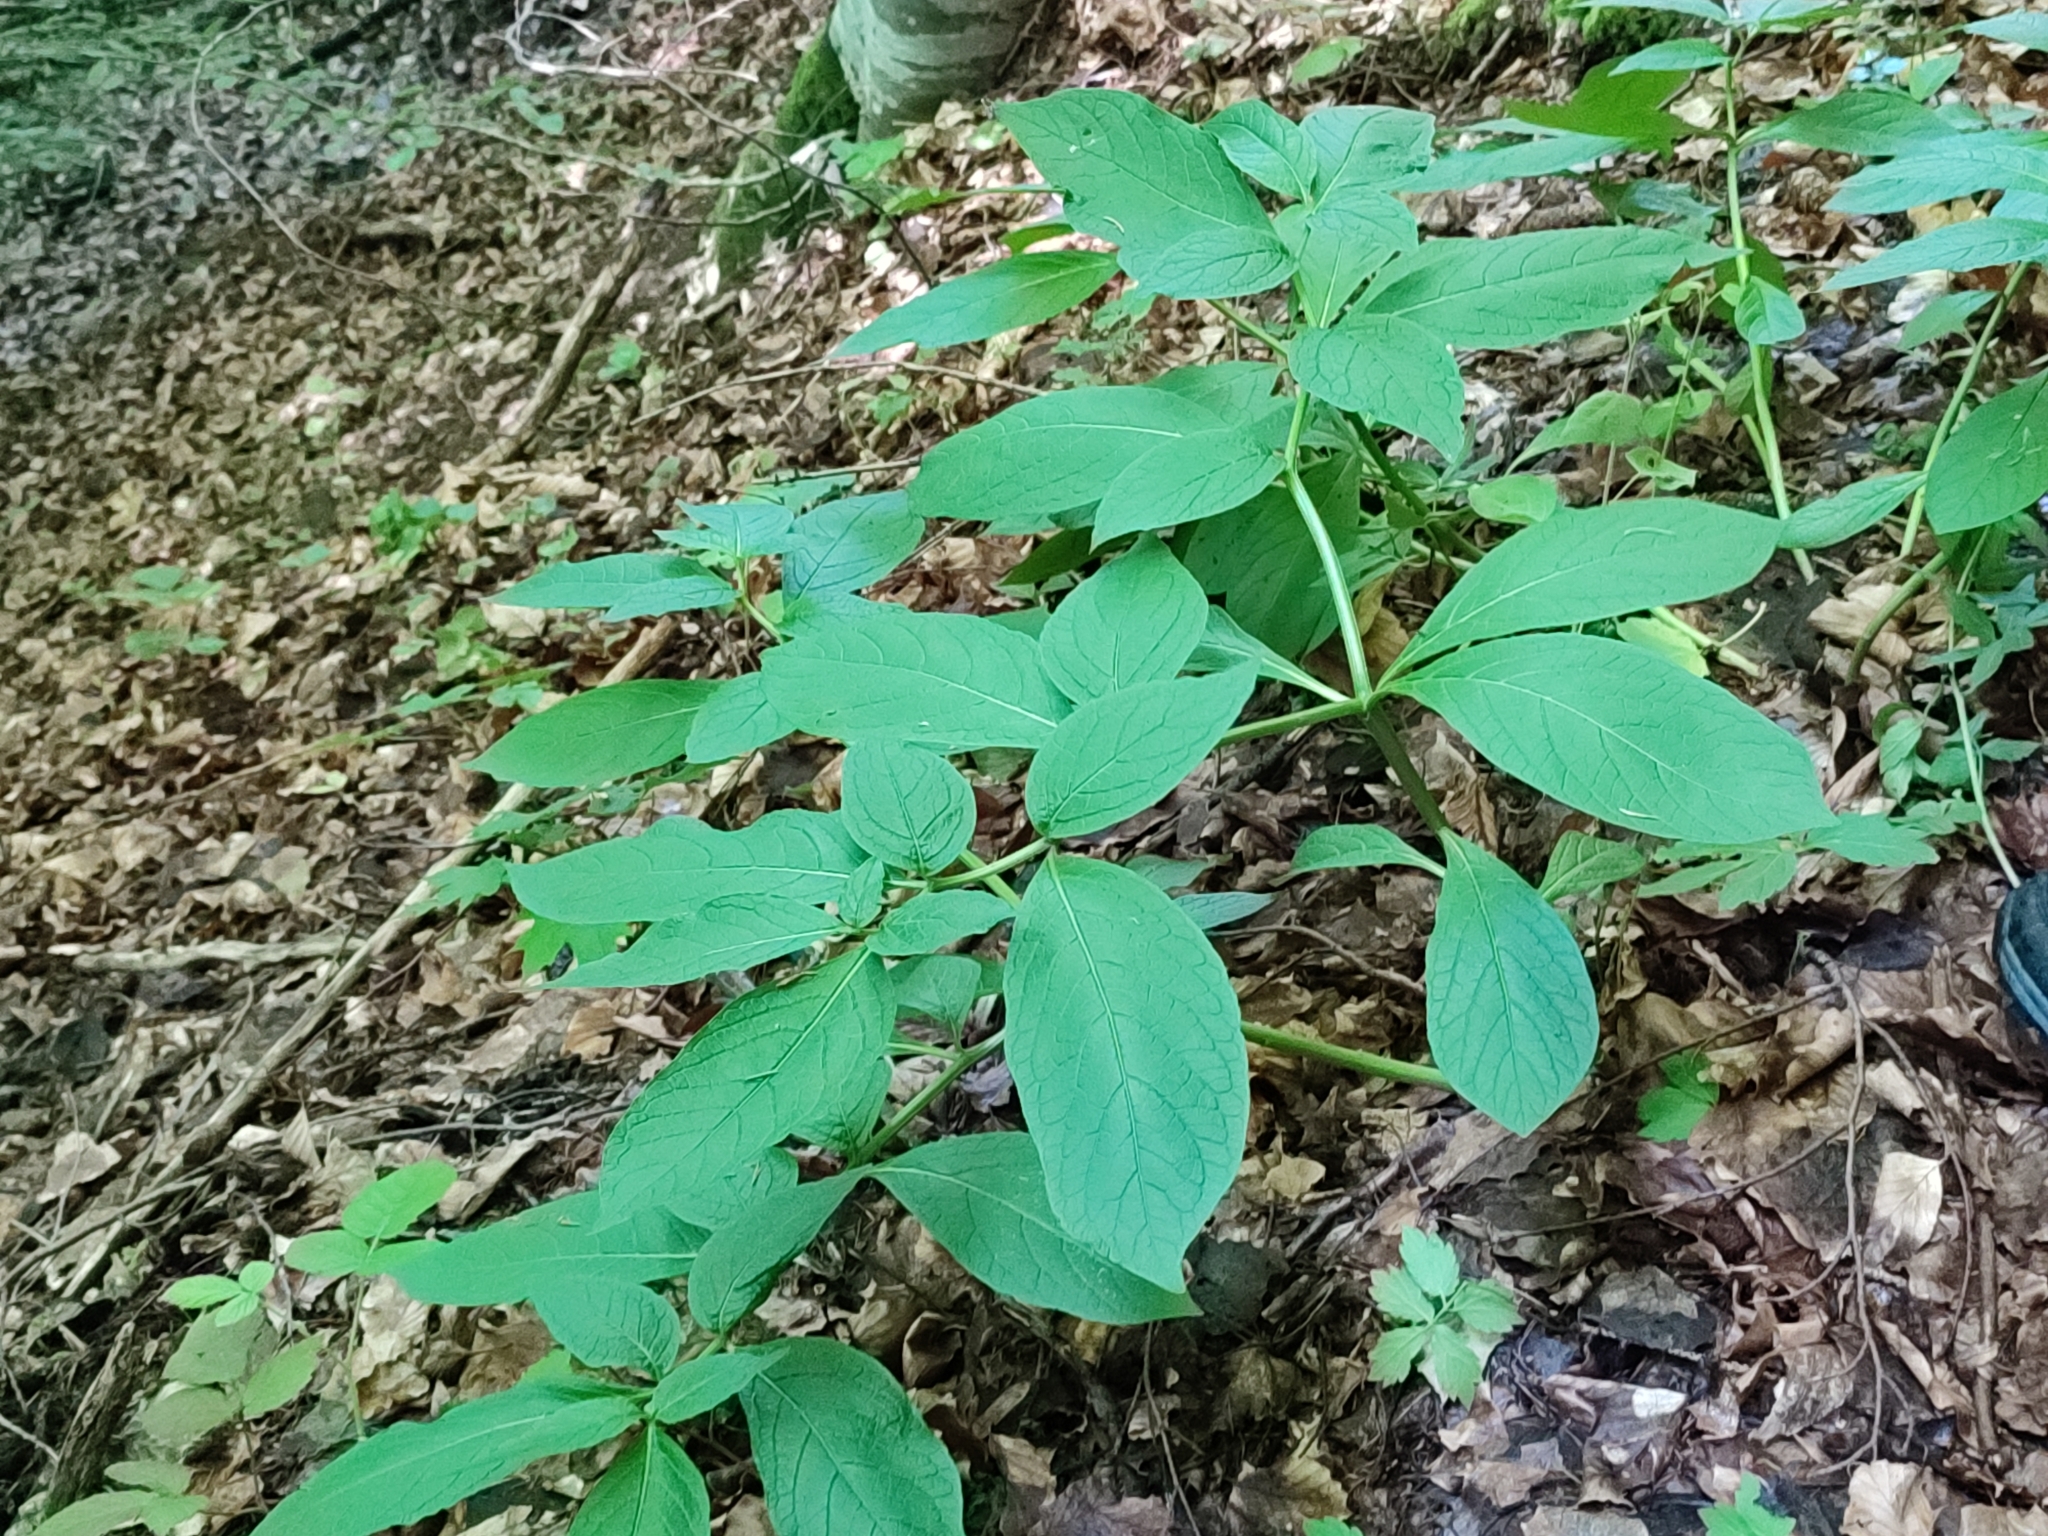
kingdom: Plantae
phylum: Tracheophyta
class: Magnoliopsida
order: Solanales
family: Solanaceae
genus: Scopolia
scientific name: Scopolia carniolica
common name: Scopolia
